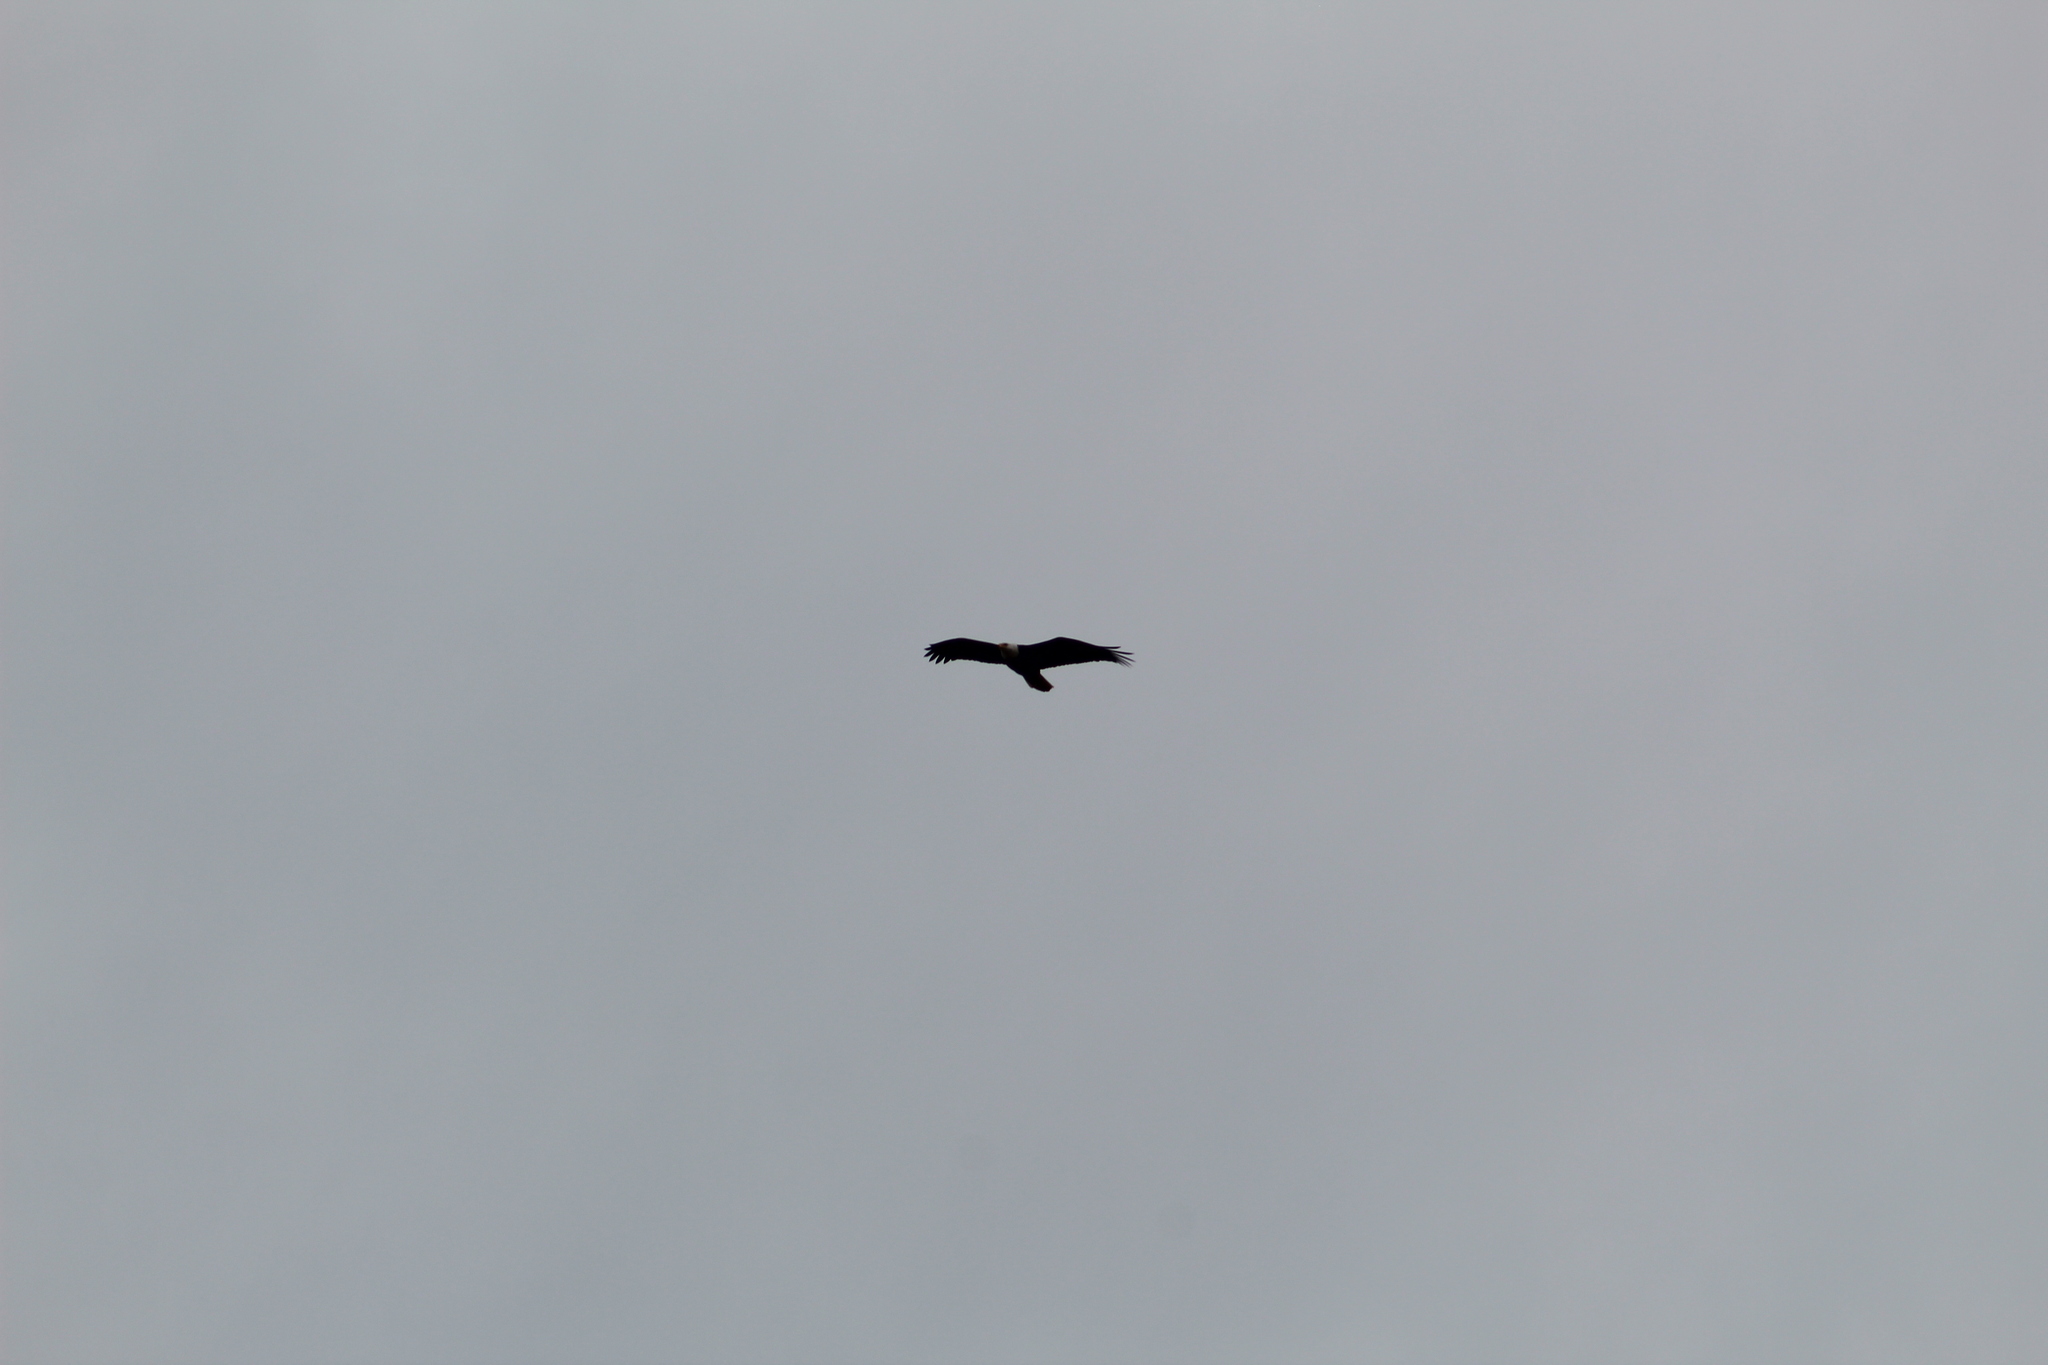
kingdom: Animalia
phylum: Chordata
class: Aves
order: Accipitriformes
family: Accipitridae
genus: Haliaeetus
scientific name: Haliaeetus leucocephalus
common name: Bald eagle
